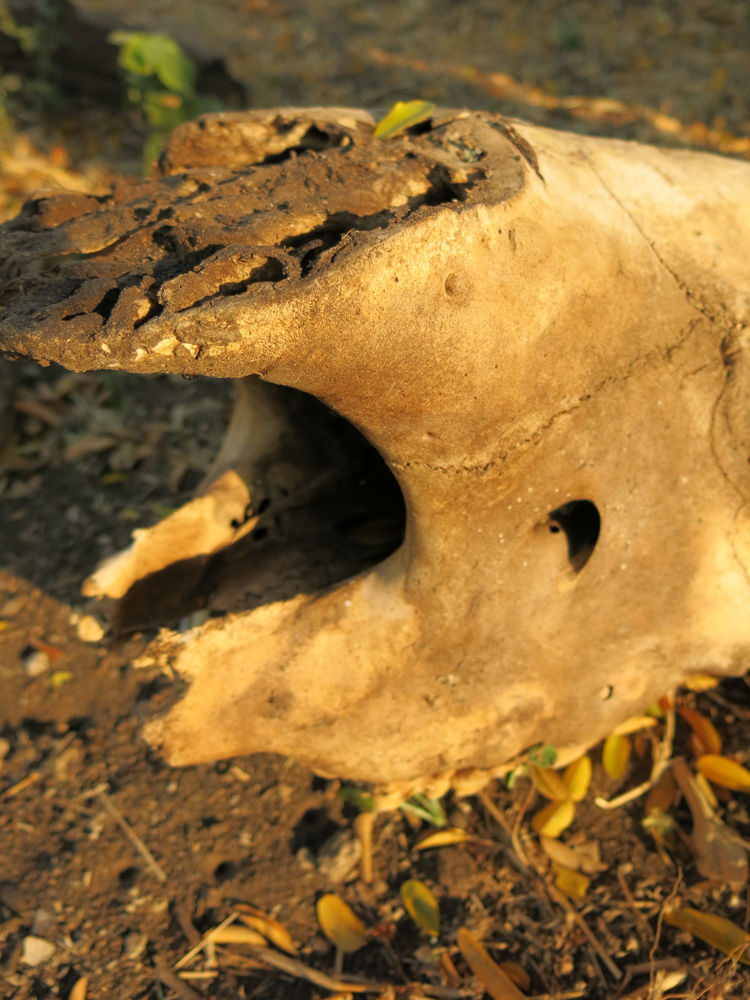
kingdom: Animalia
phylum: Chordata
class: Mammalia
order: Perissodactyla
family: Rhinocerotidae
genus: Ceratotherium
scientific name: Ceratotherium simum
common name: White rhinoceros
